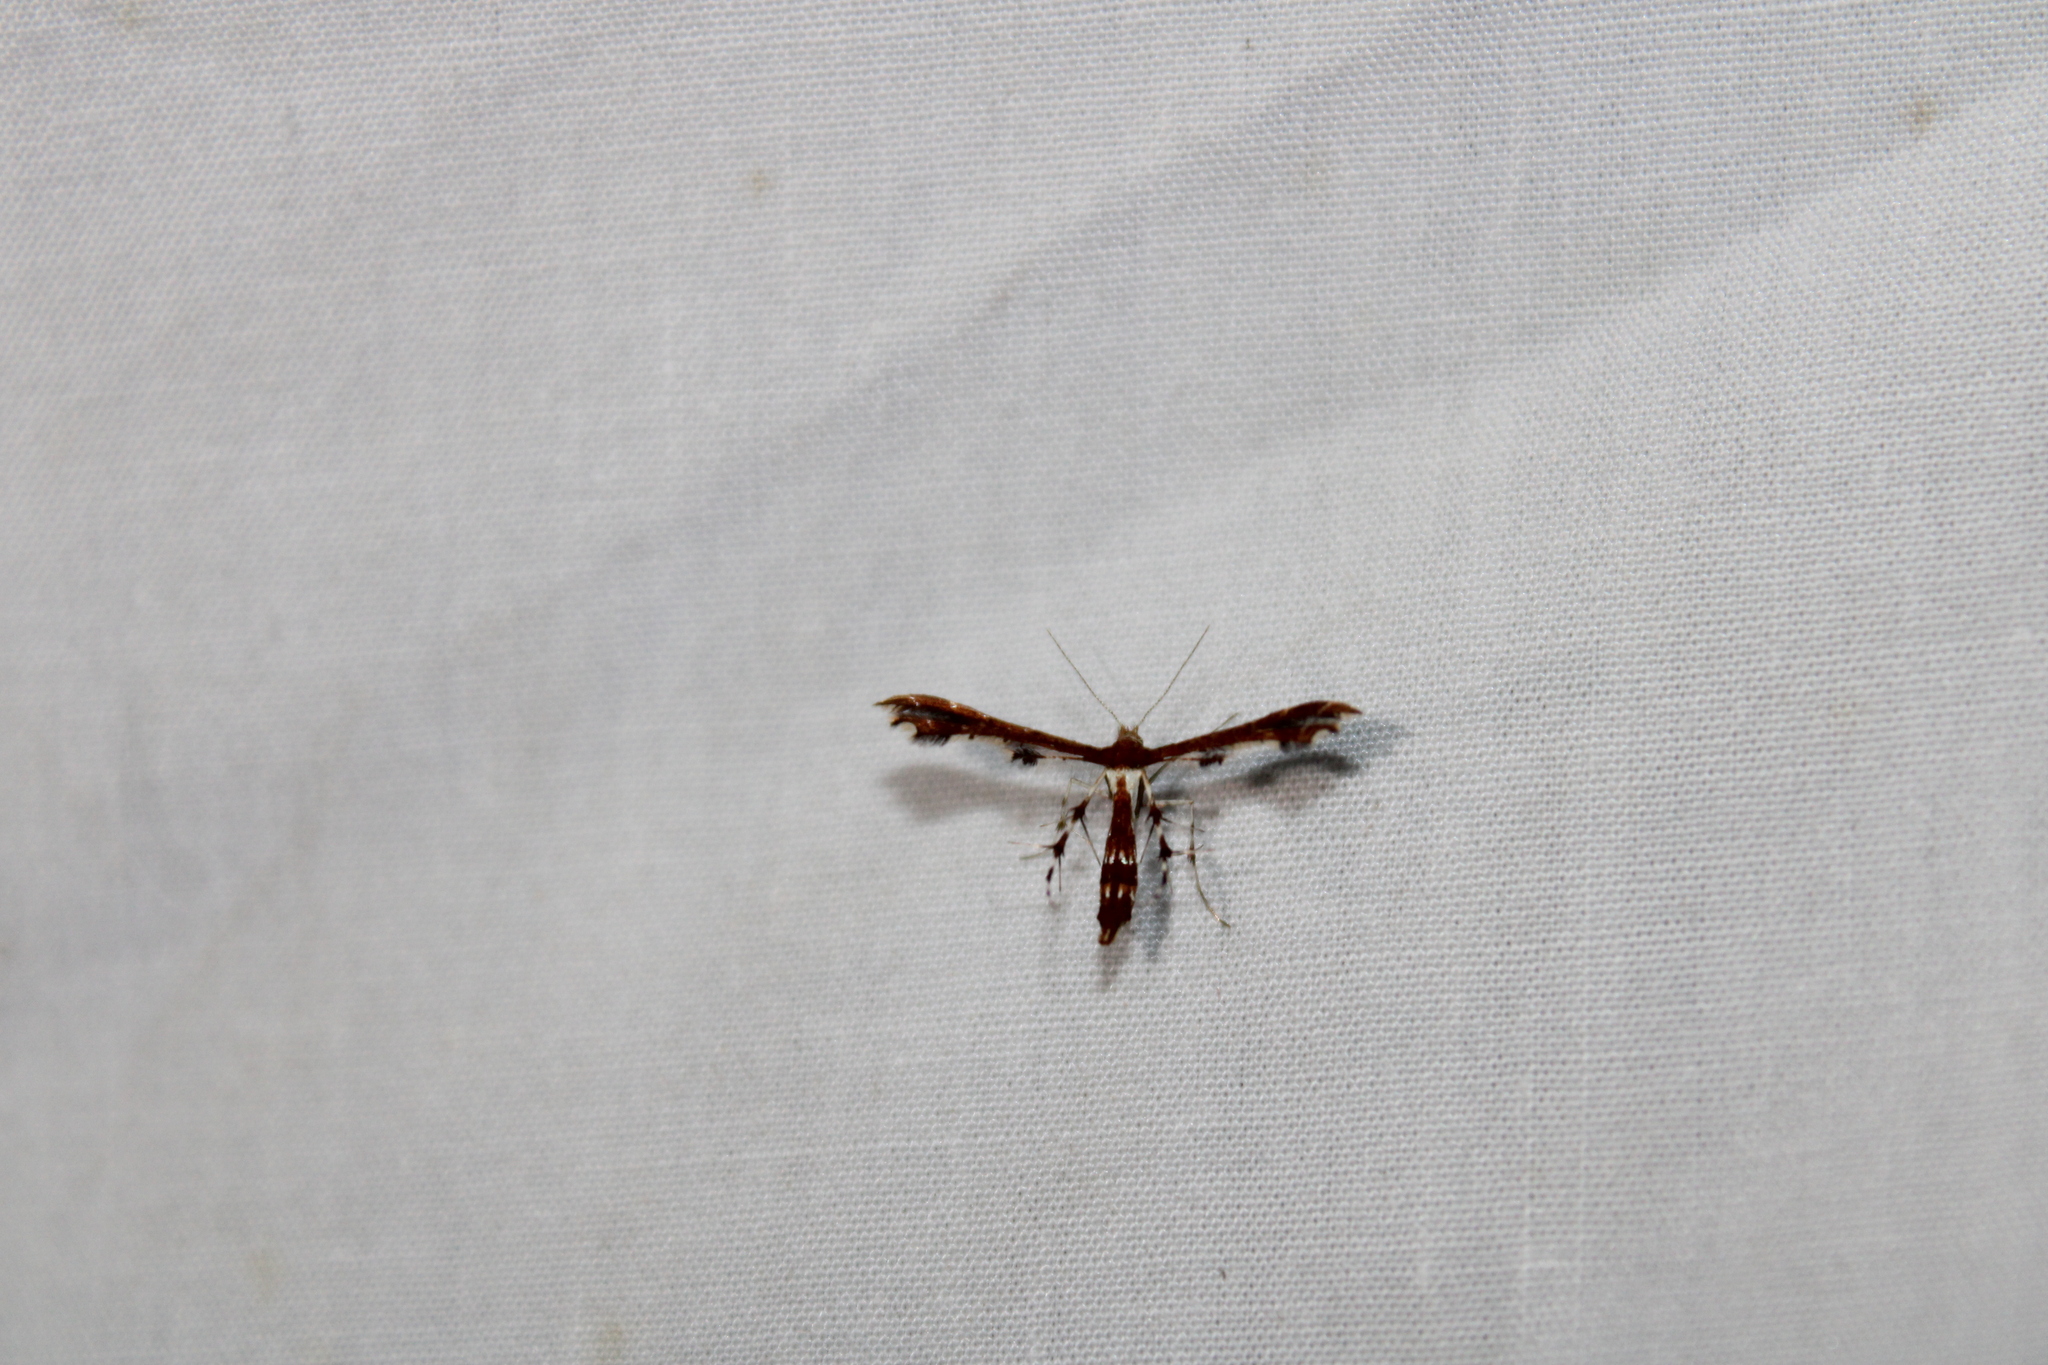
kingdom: Animalia
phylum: Arthropoda
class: Insecta
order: Lepidoptera
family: Pterophoridae
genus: Geina
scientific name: Geina
